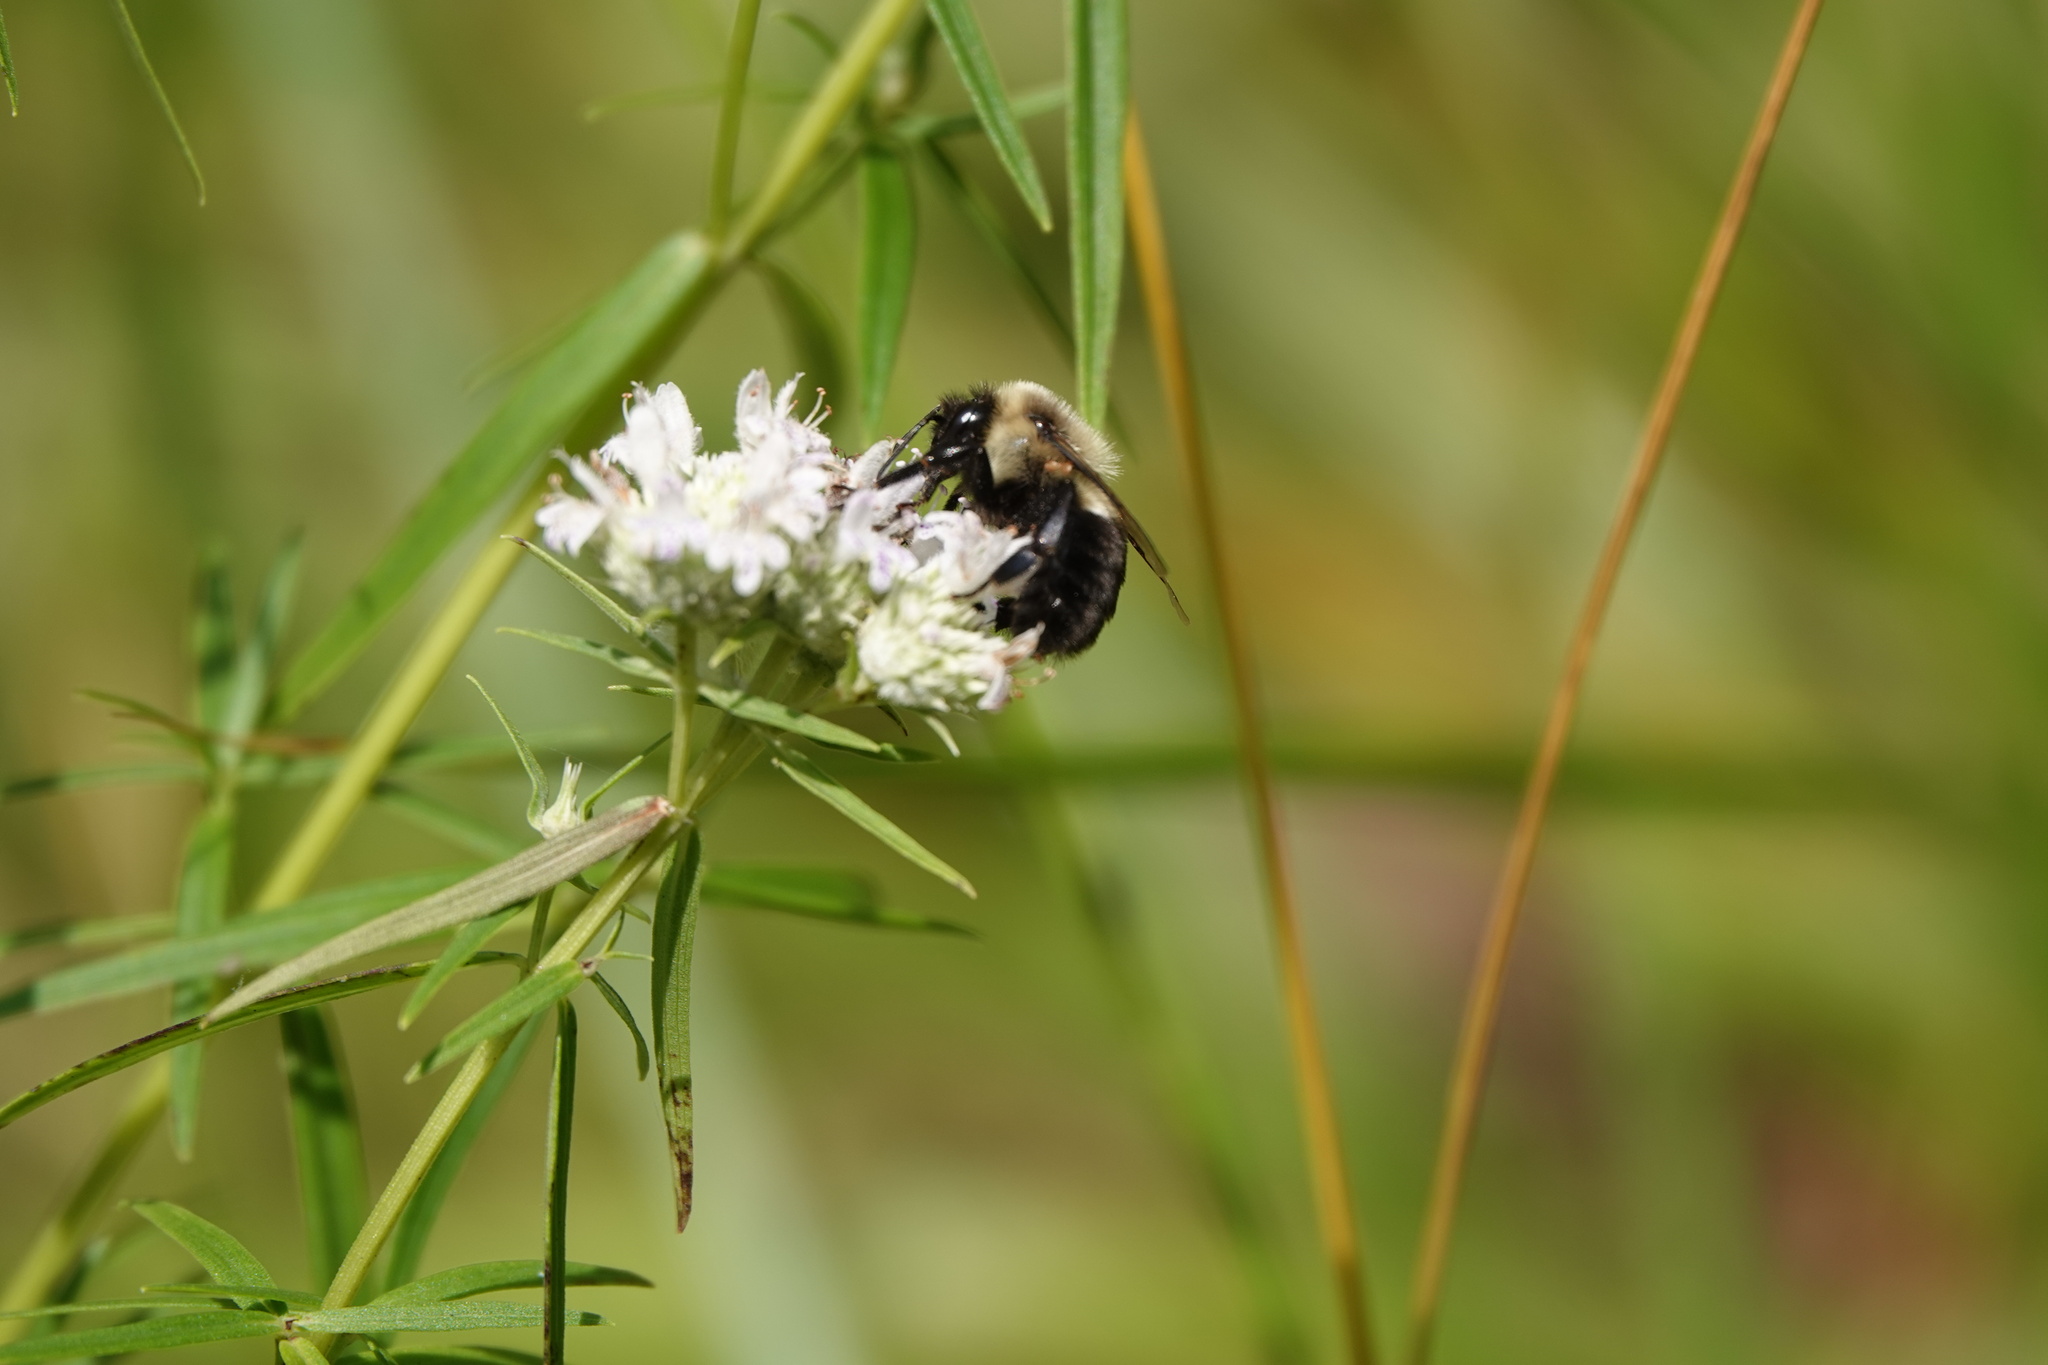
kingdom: Animalia
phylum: Arthropoda
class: Insecta
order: Hymenoptera
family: Apidae
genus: Bombus
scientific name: Bombus impatiens
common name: Common eastern bumble bee
